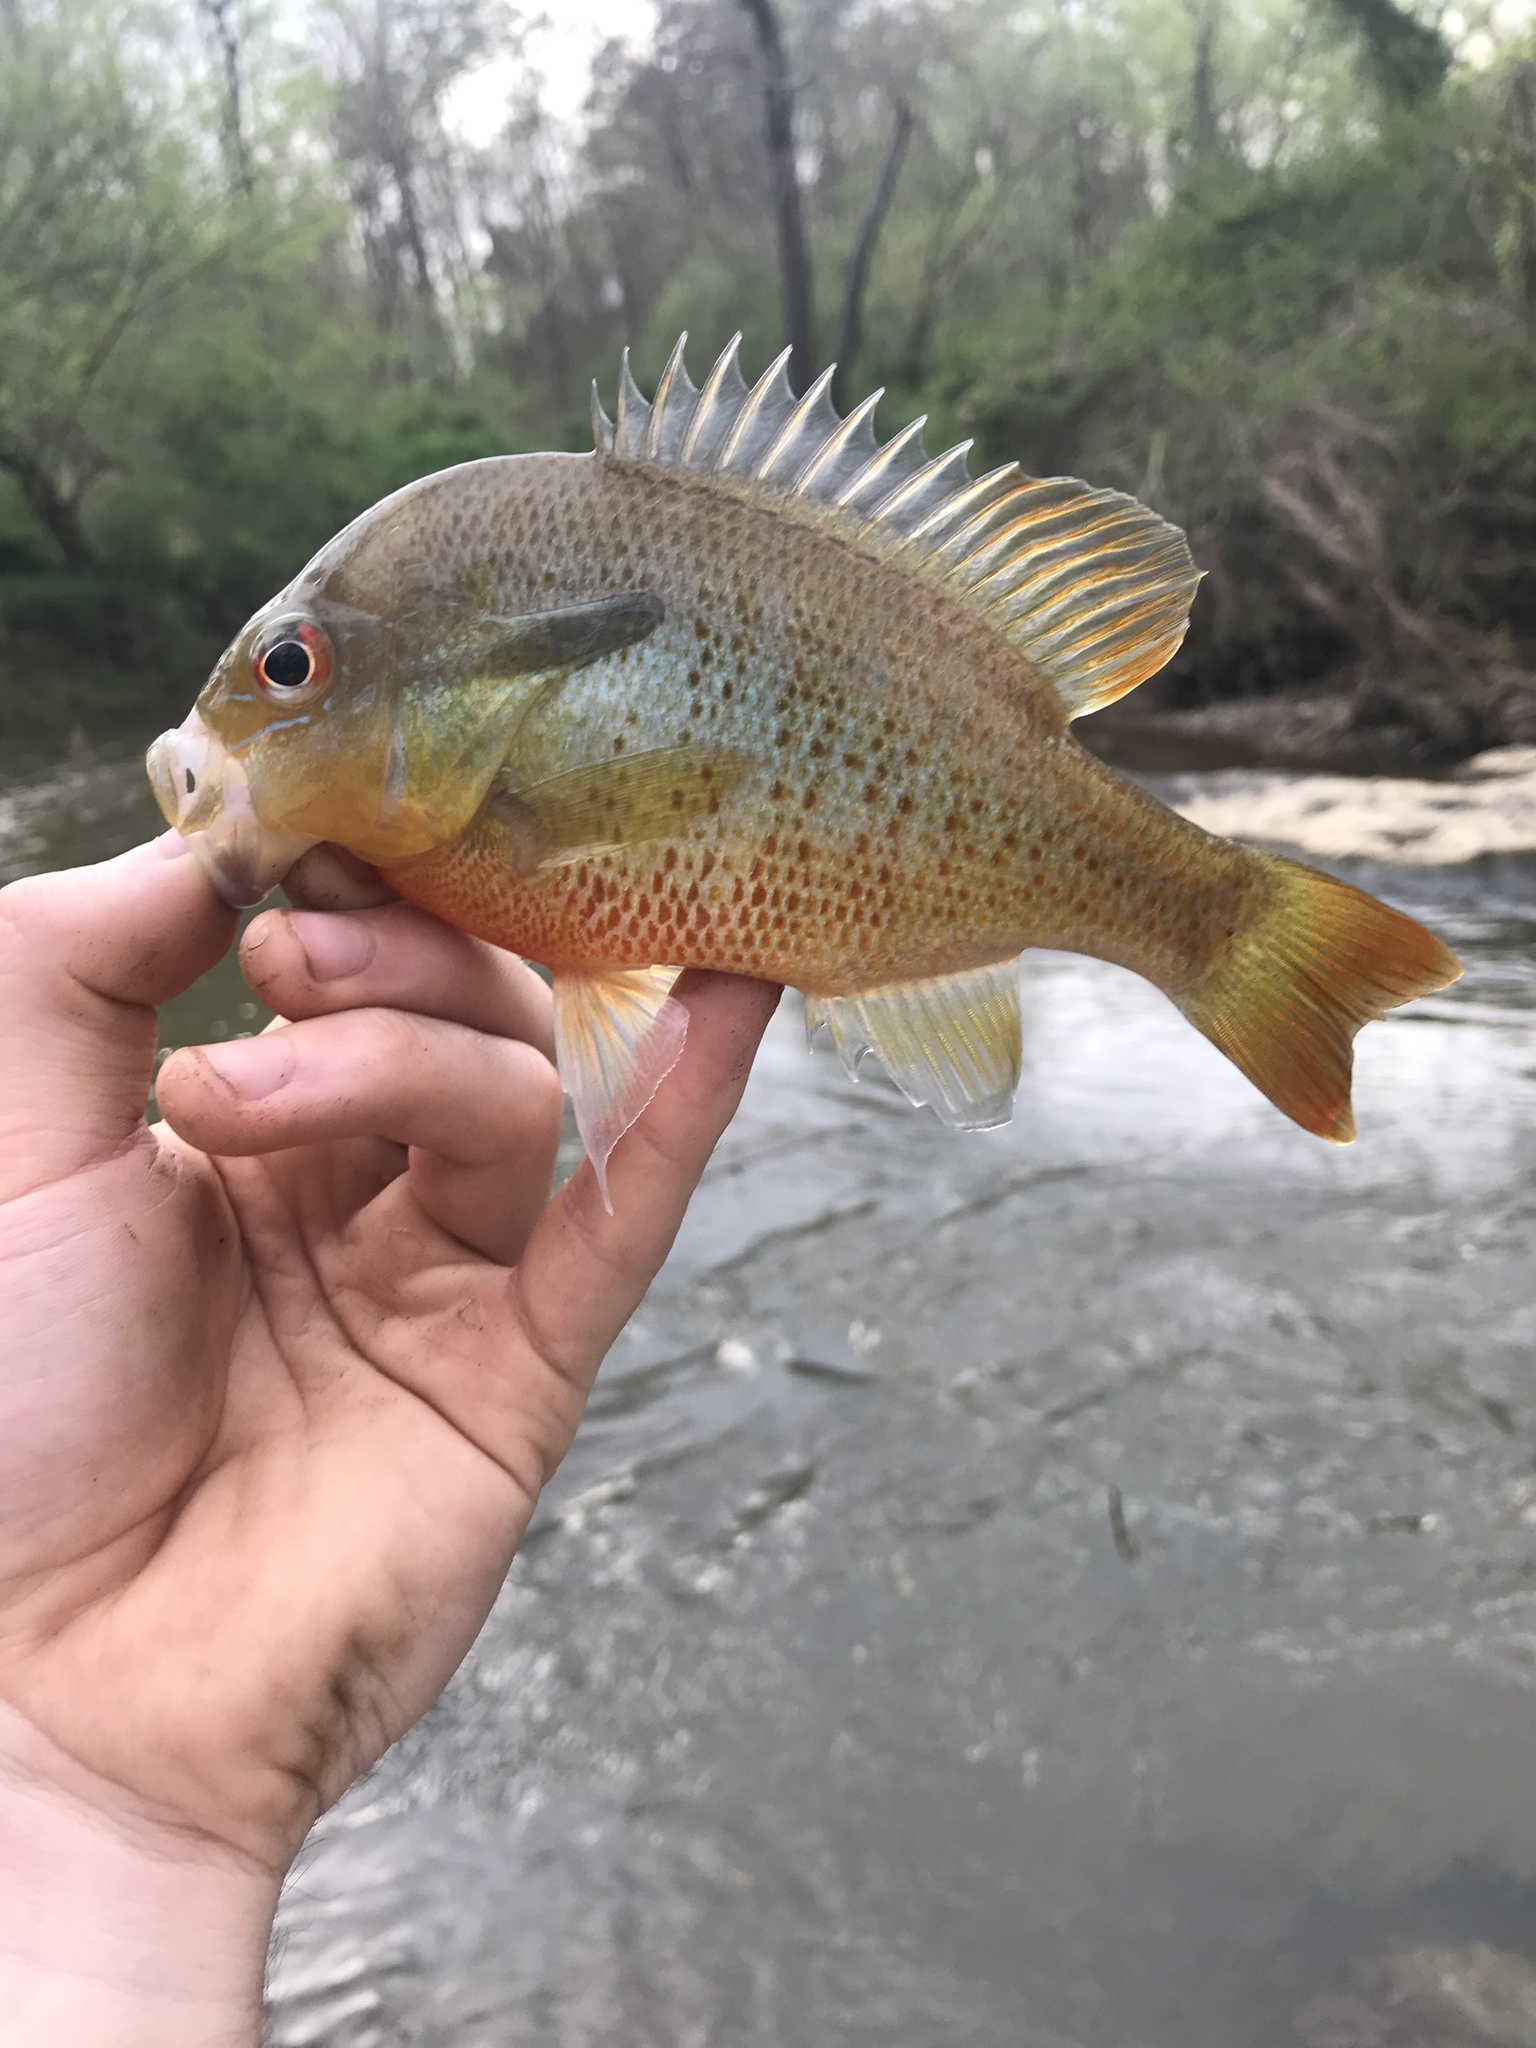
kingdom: Animalia
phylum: Chordata
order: Perciformes
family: Centrarchidae
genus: Lepomis
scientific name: Lepomis auritus
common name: Redbreast sunfish
